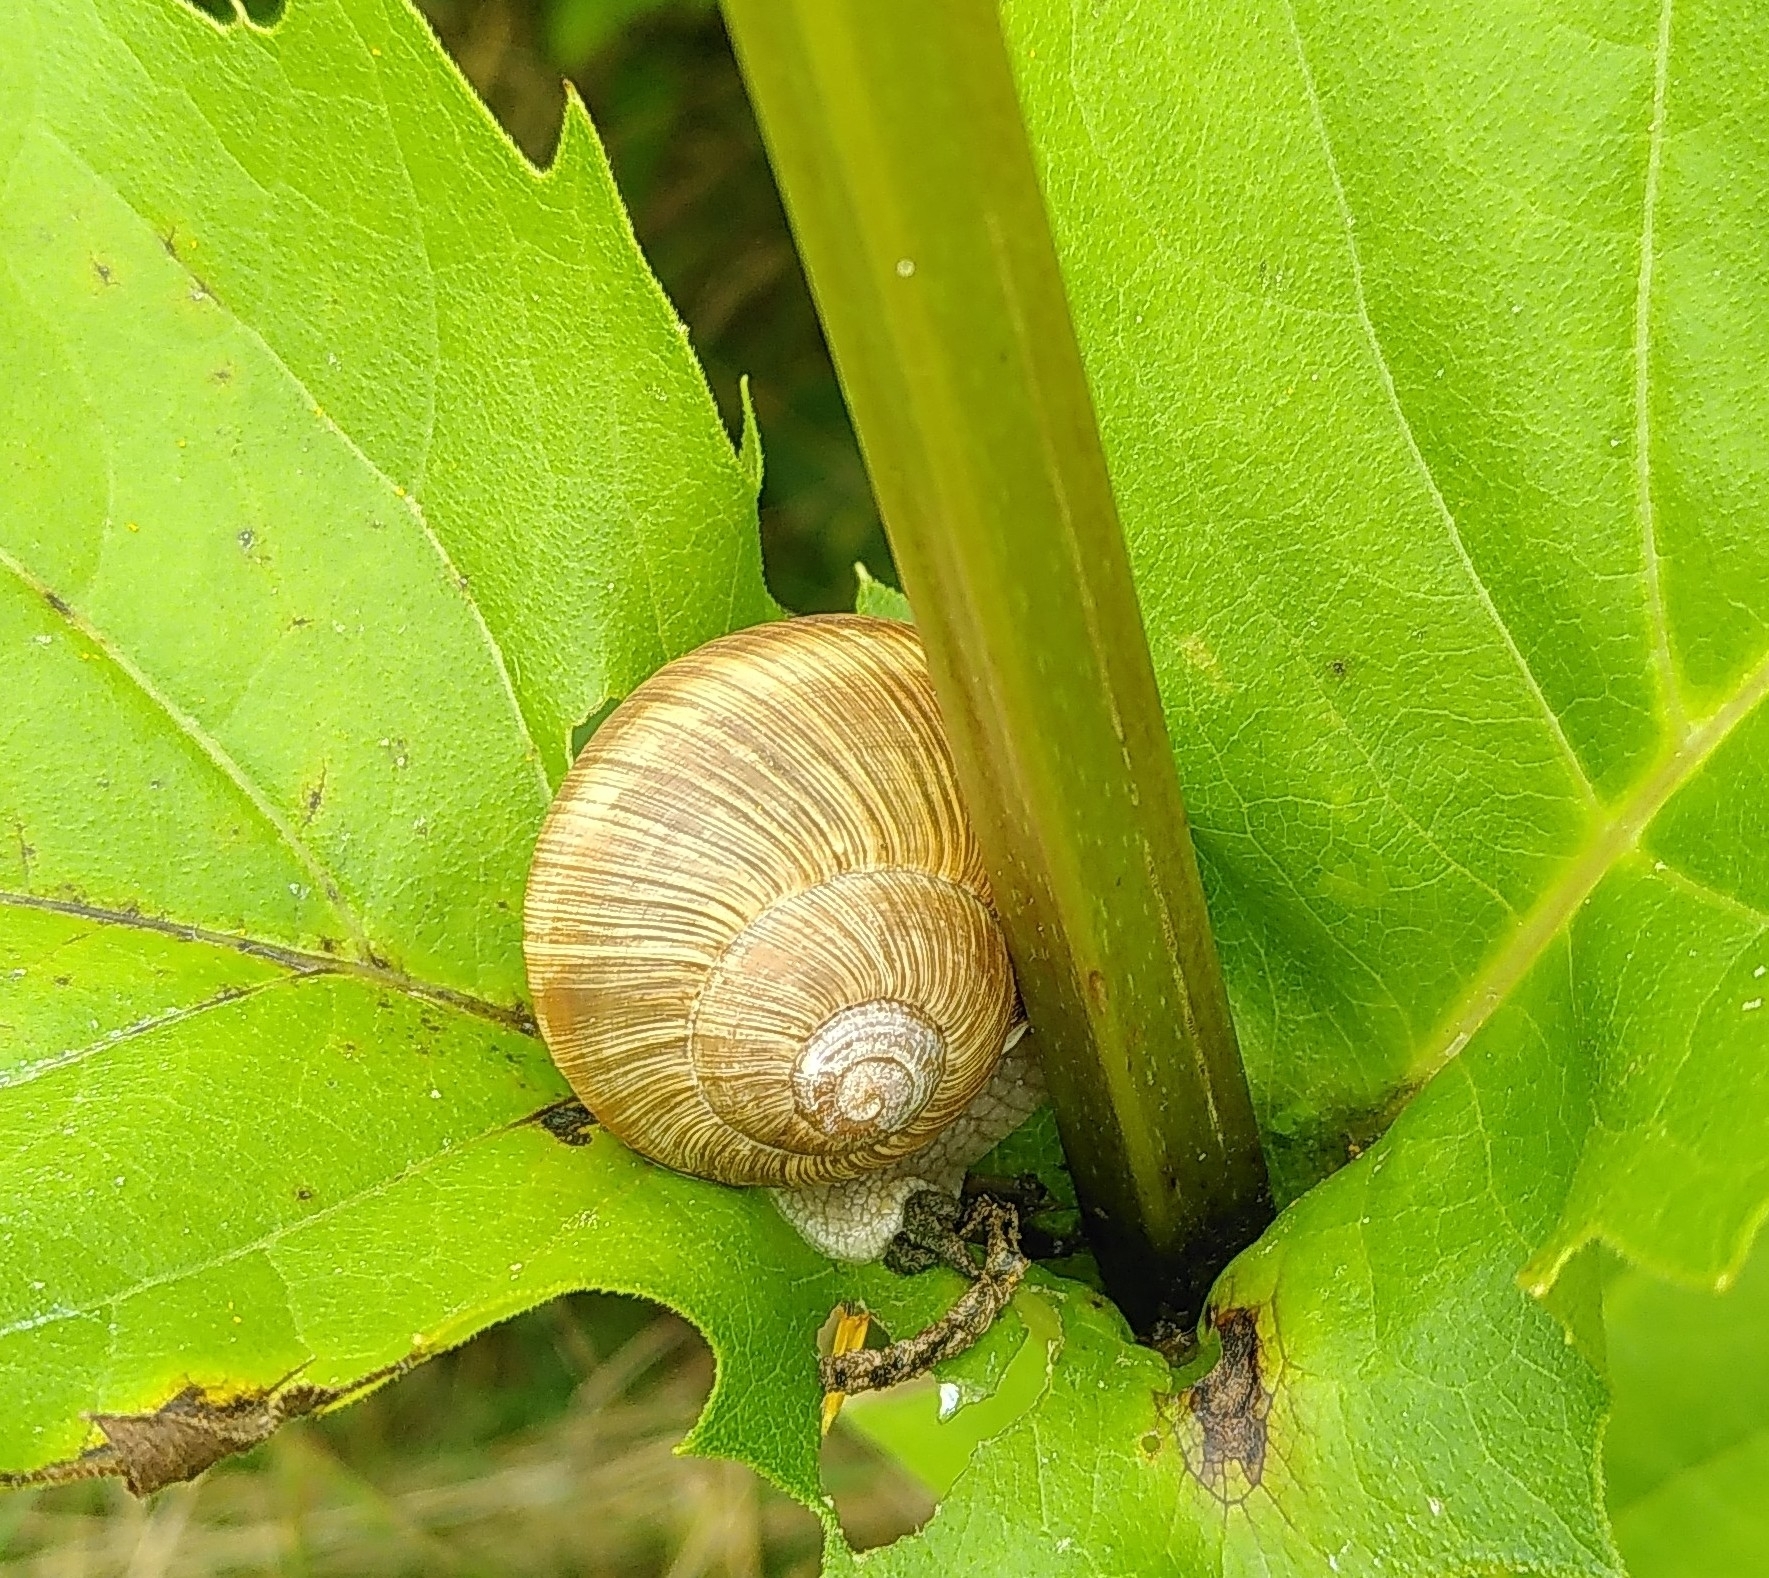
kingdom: Animalia
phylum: Mollusca
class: Gastropoda
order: Stylommatophora
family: Helicidae
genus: Helix
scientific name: Helix pomatia
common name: Roman snail
